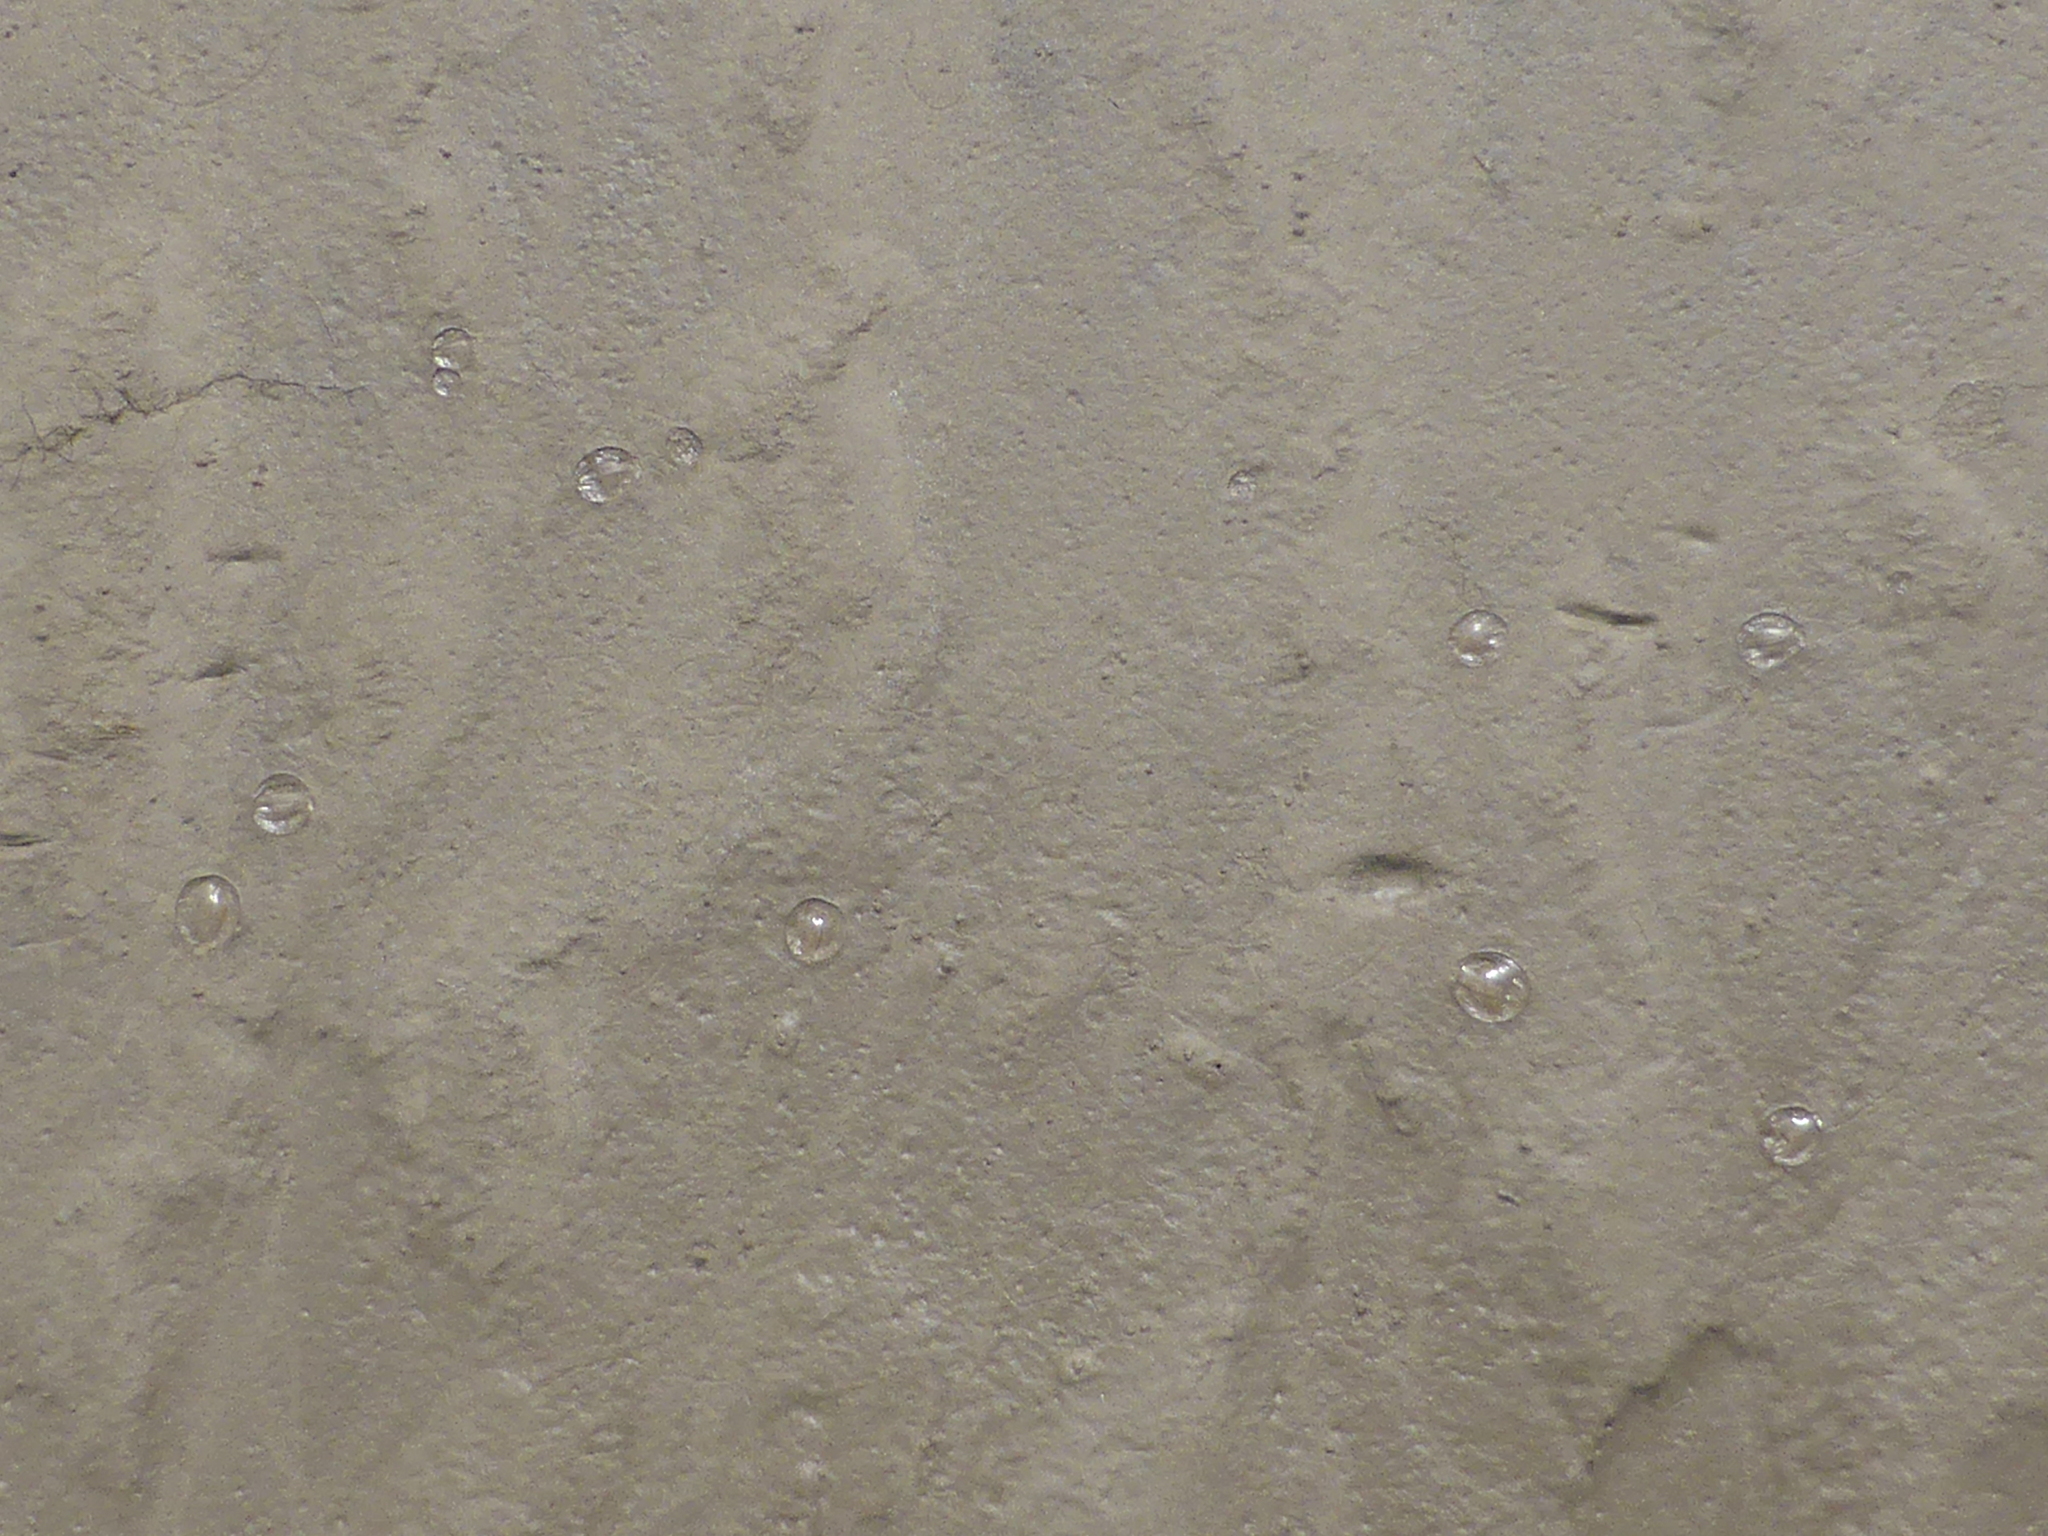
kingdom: Animalia
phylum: Ctenophora
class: Tentaculata
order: Cydippida
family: Pleurobrachiidae
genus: Pleurobrachia
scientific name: Pleurobrachia pileus
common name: Sea gooseberry
